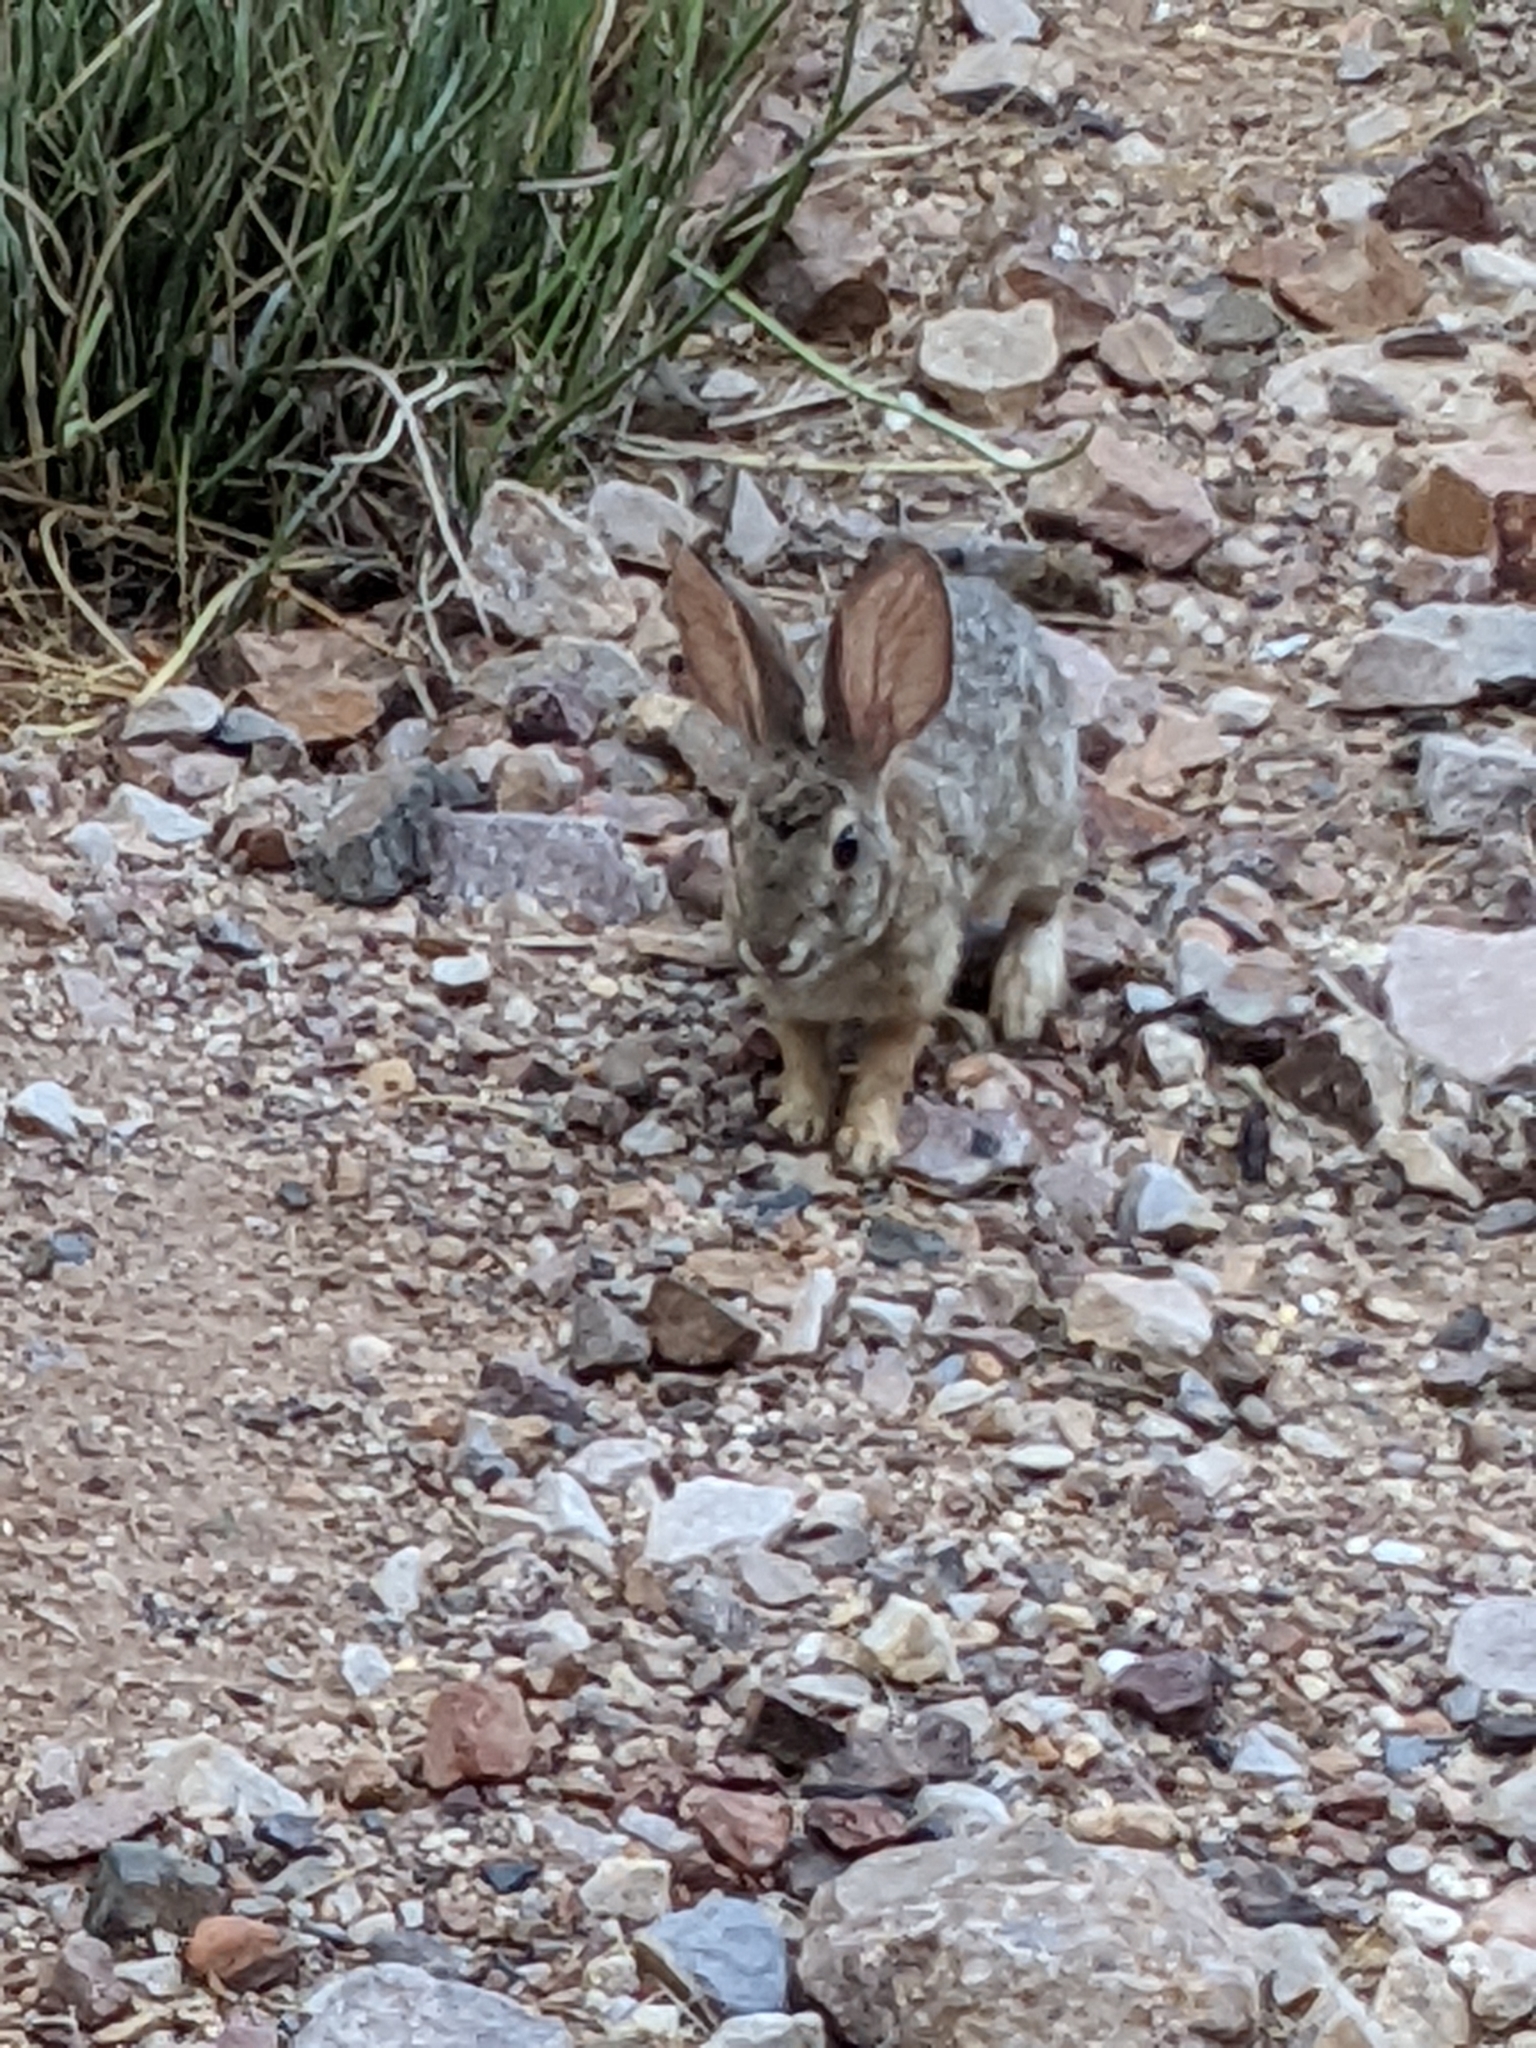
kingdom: Animalia
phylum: Chordata
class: Mammalia
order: Lagomorpha
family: Leporidae
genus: Sylvilagus
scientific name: Sylvilagus audubonii
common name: Desert cottontail
